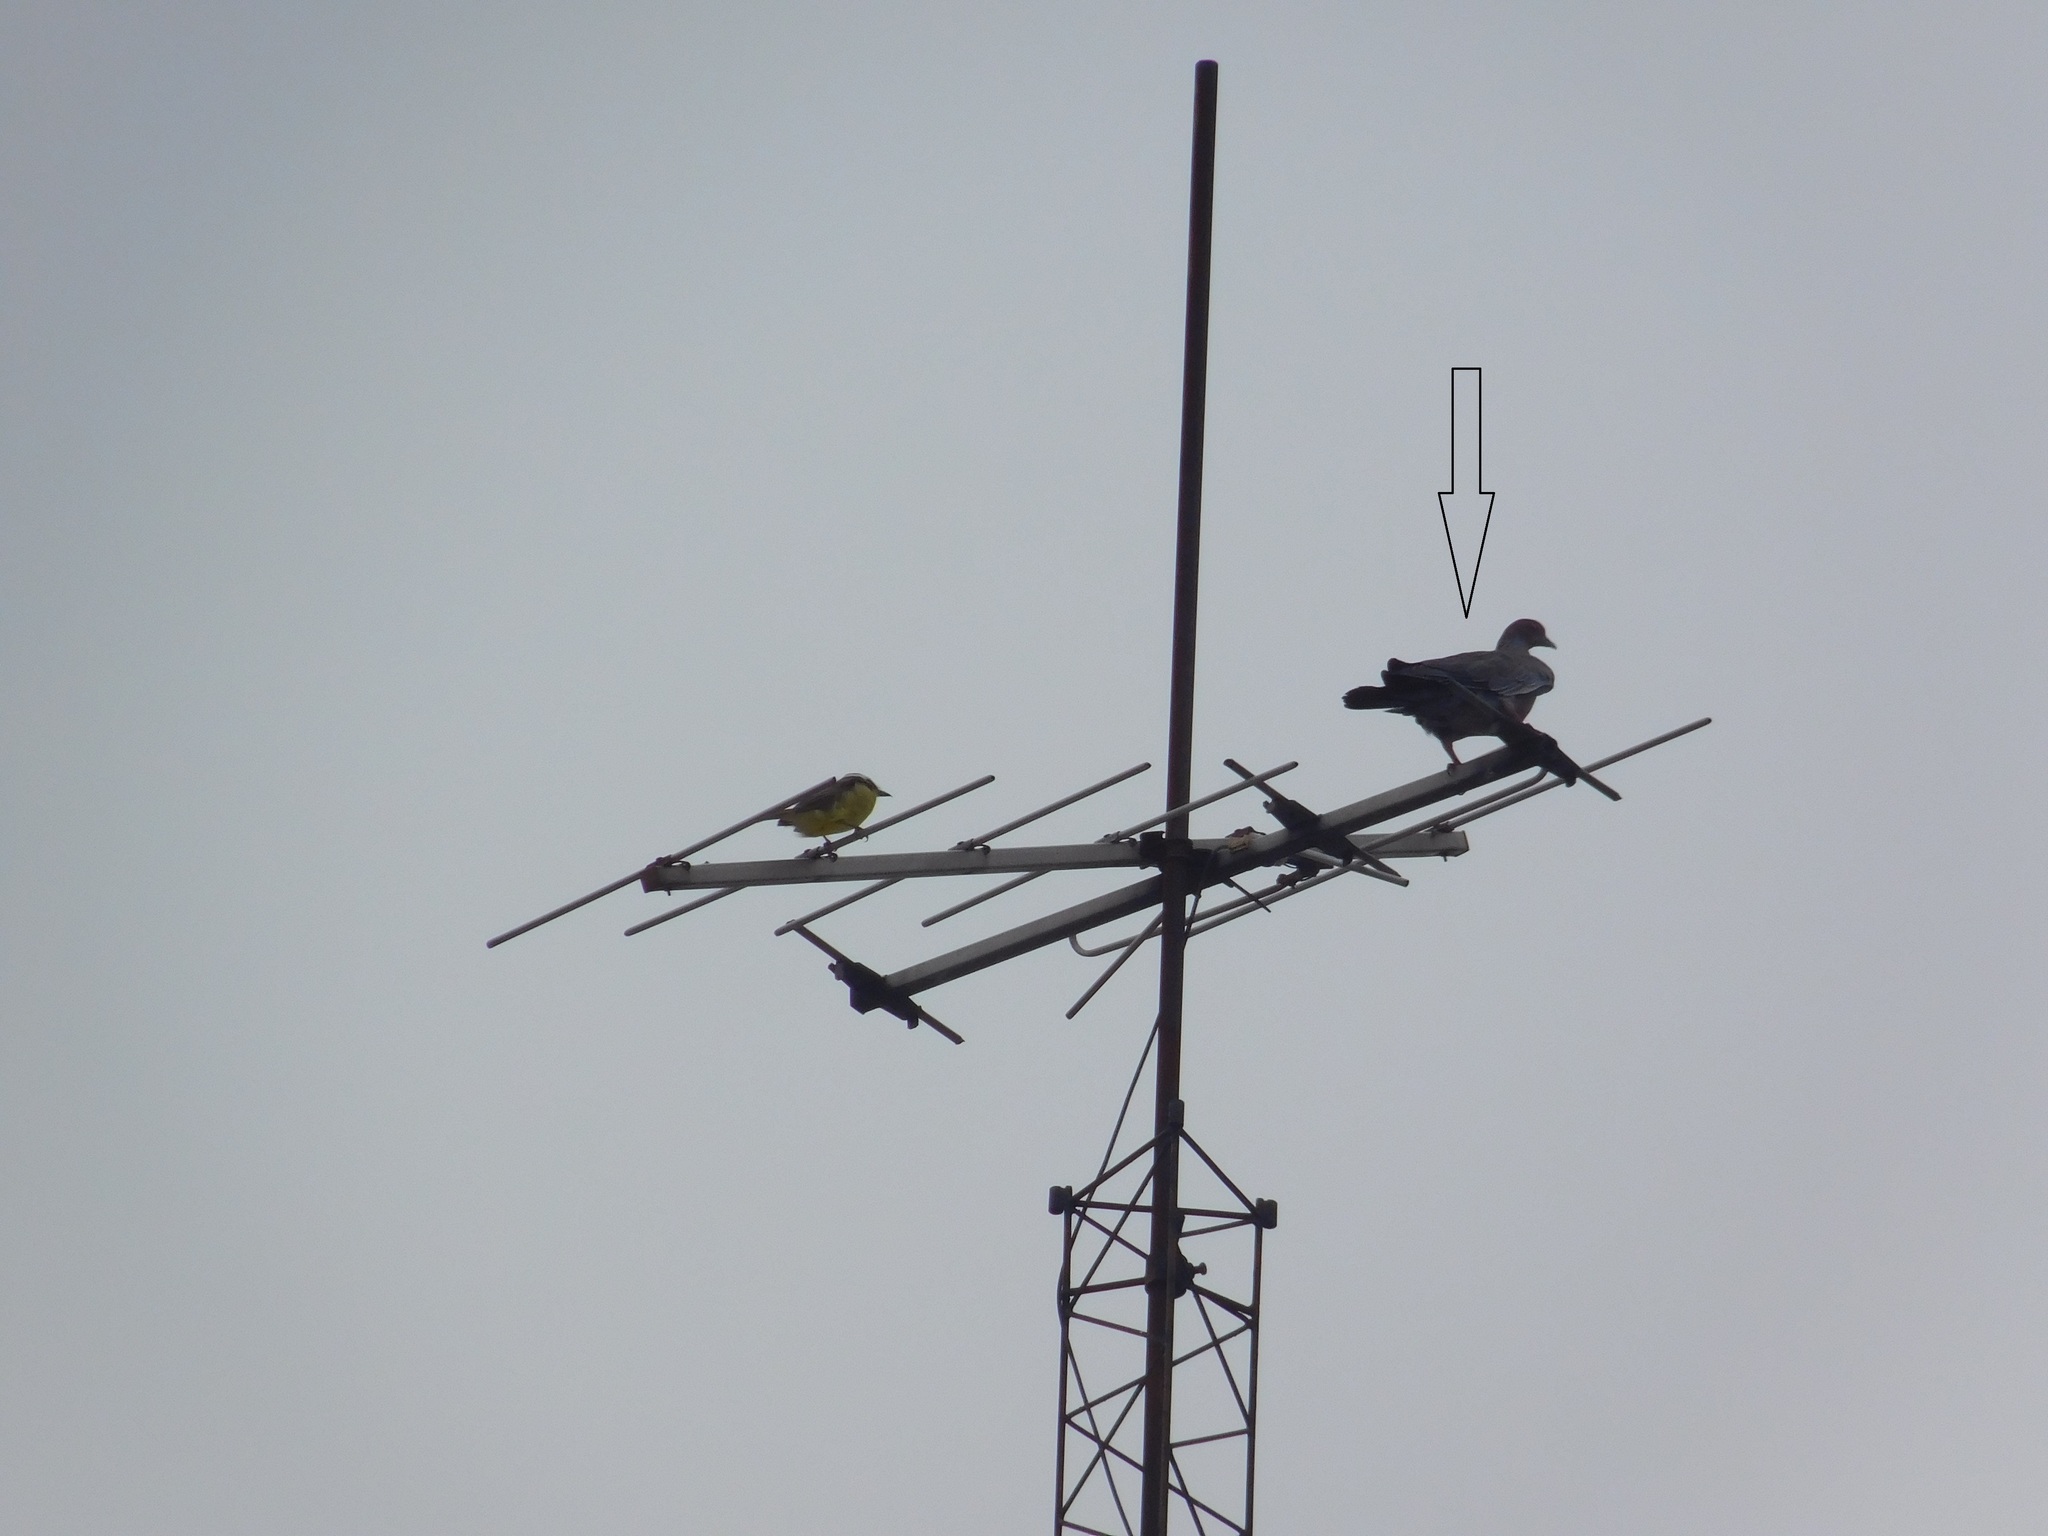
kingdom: Animalia
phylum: Chordata
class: Aves
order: Columbiformes
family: Columbidae
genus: Patagioenas
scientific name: Patagioenas picazuro
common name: Picazuro pigeon
